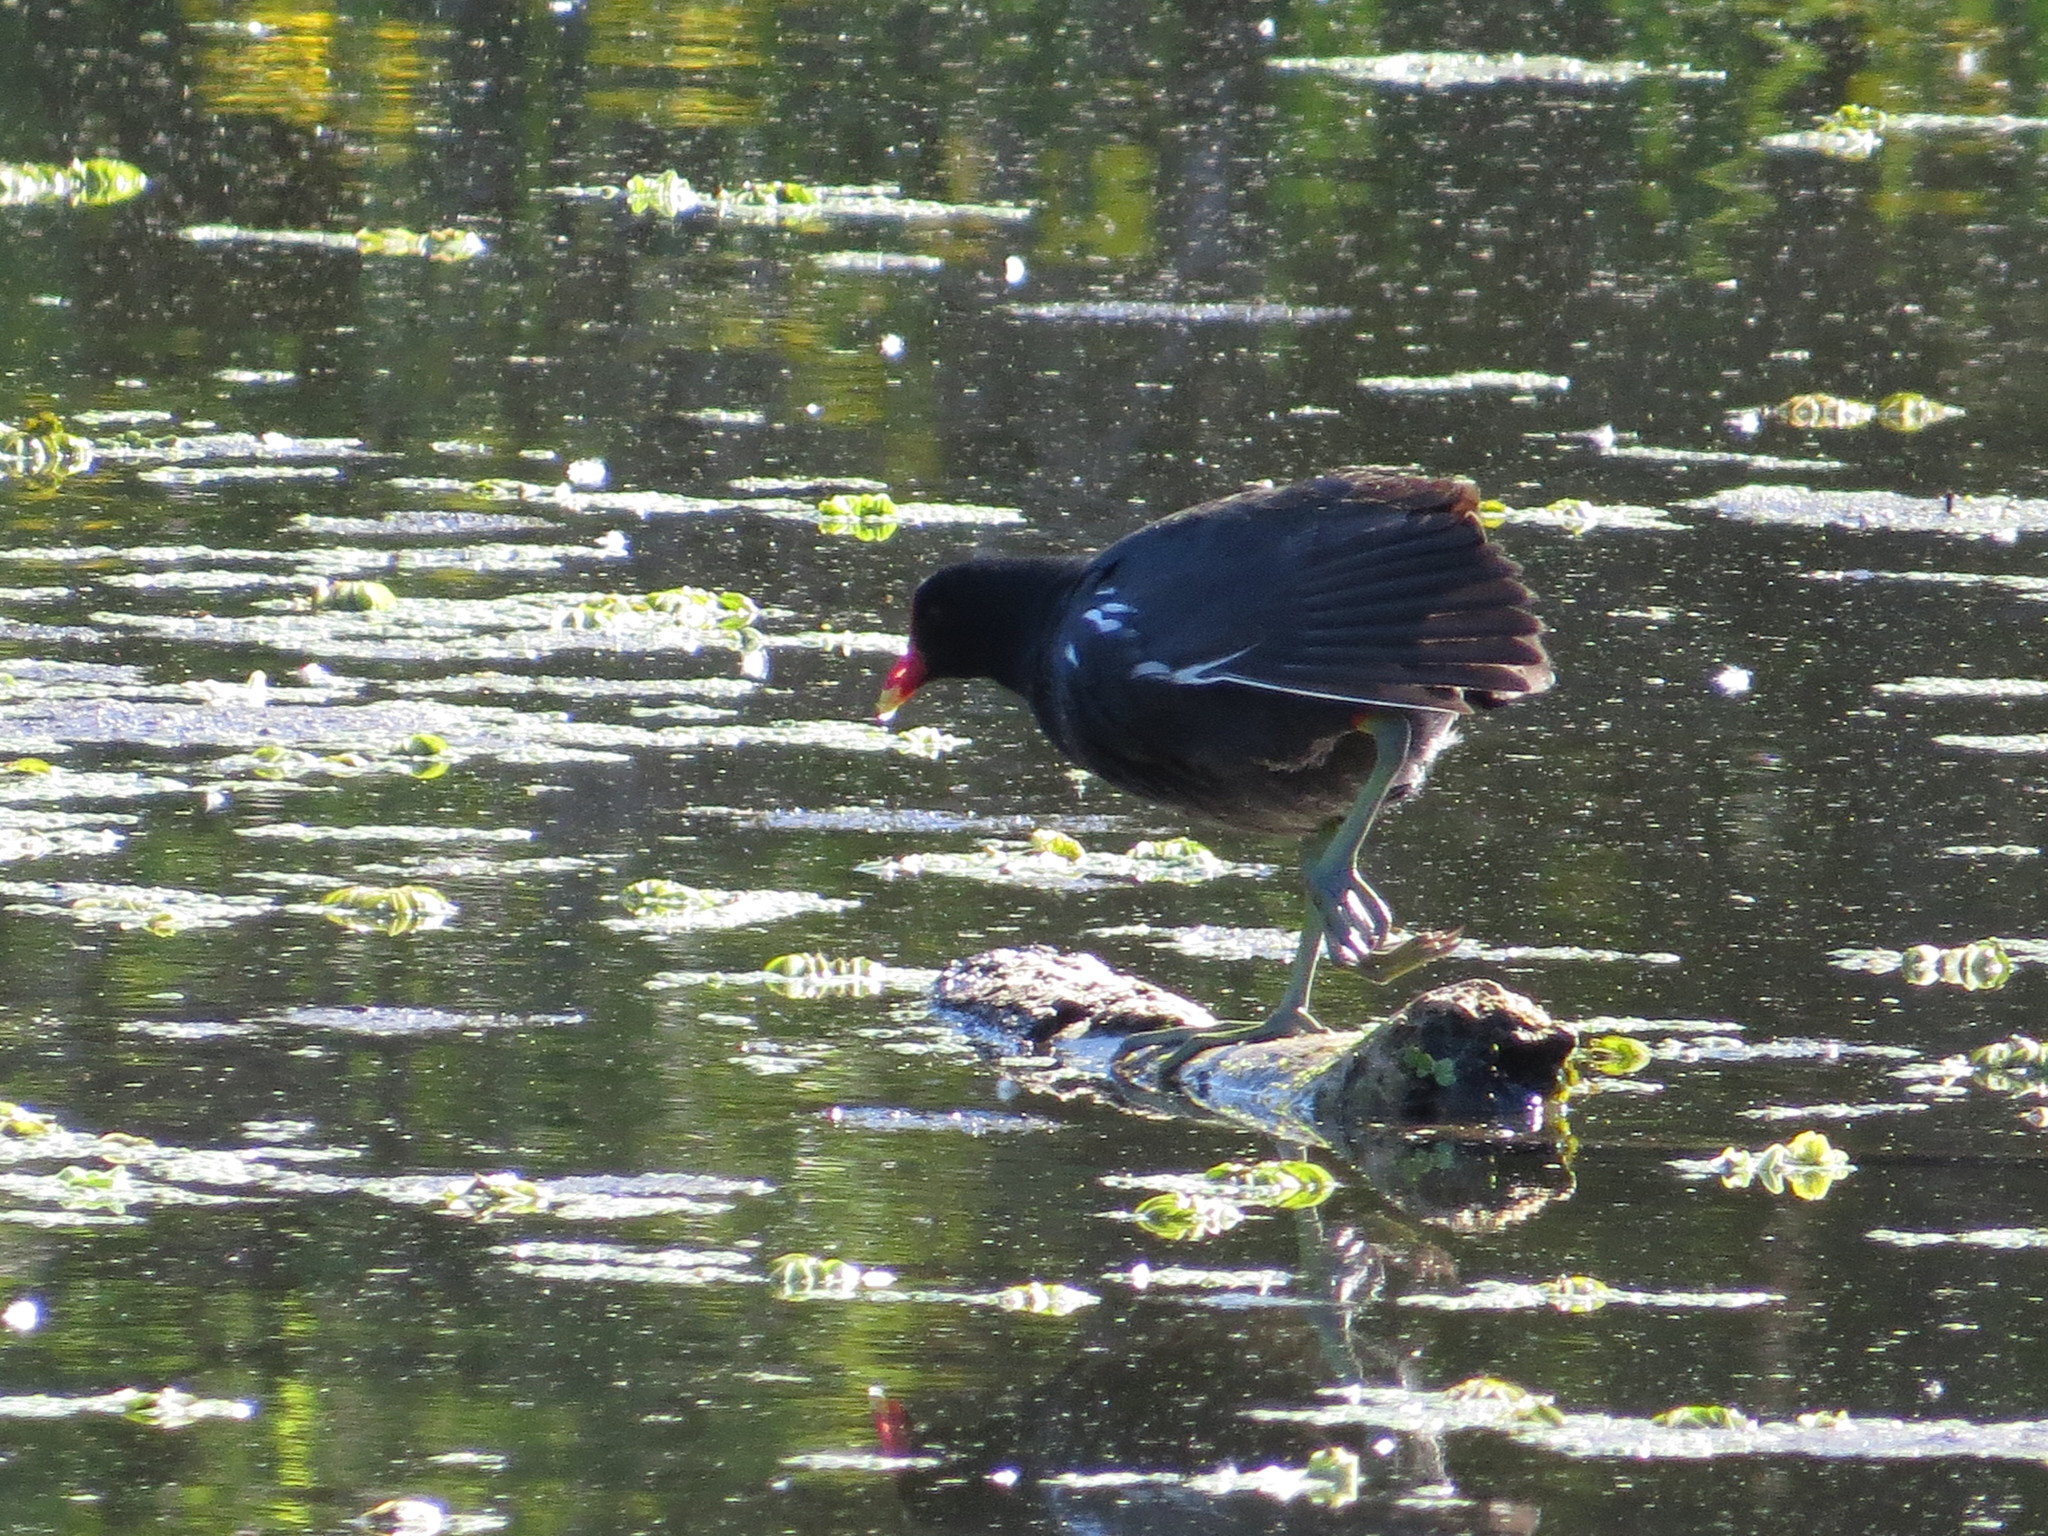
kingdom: Animalia
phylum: Chordata
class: Aves
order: Gruiformes
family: Rallidae
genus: Gallinula
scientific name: Gallinula chloropus
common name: Common moorhen
